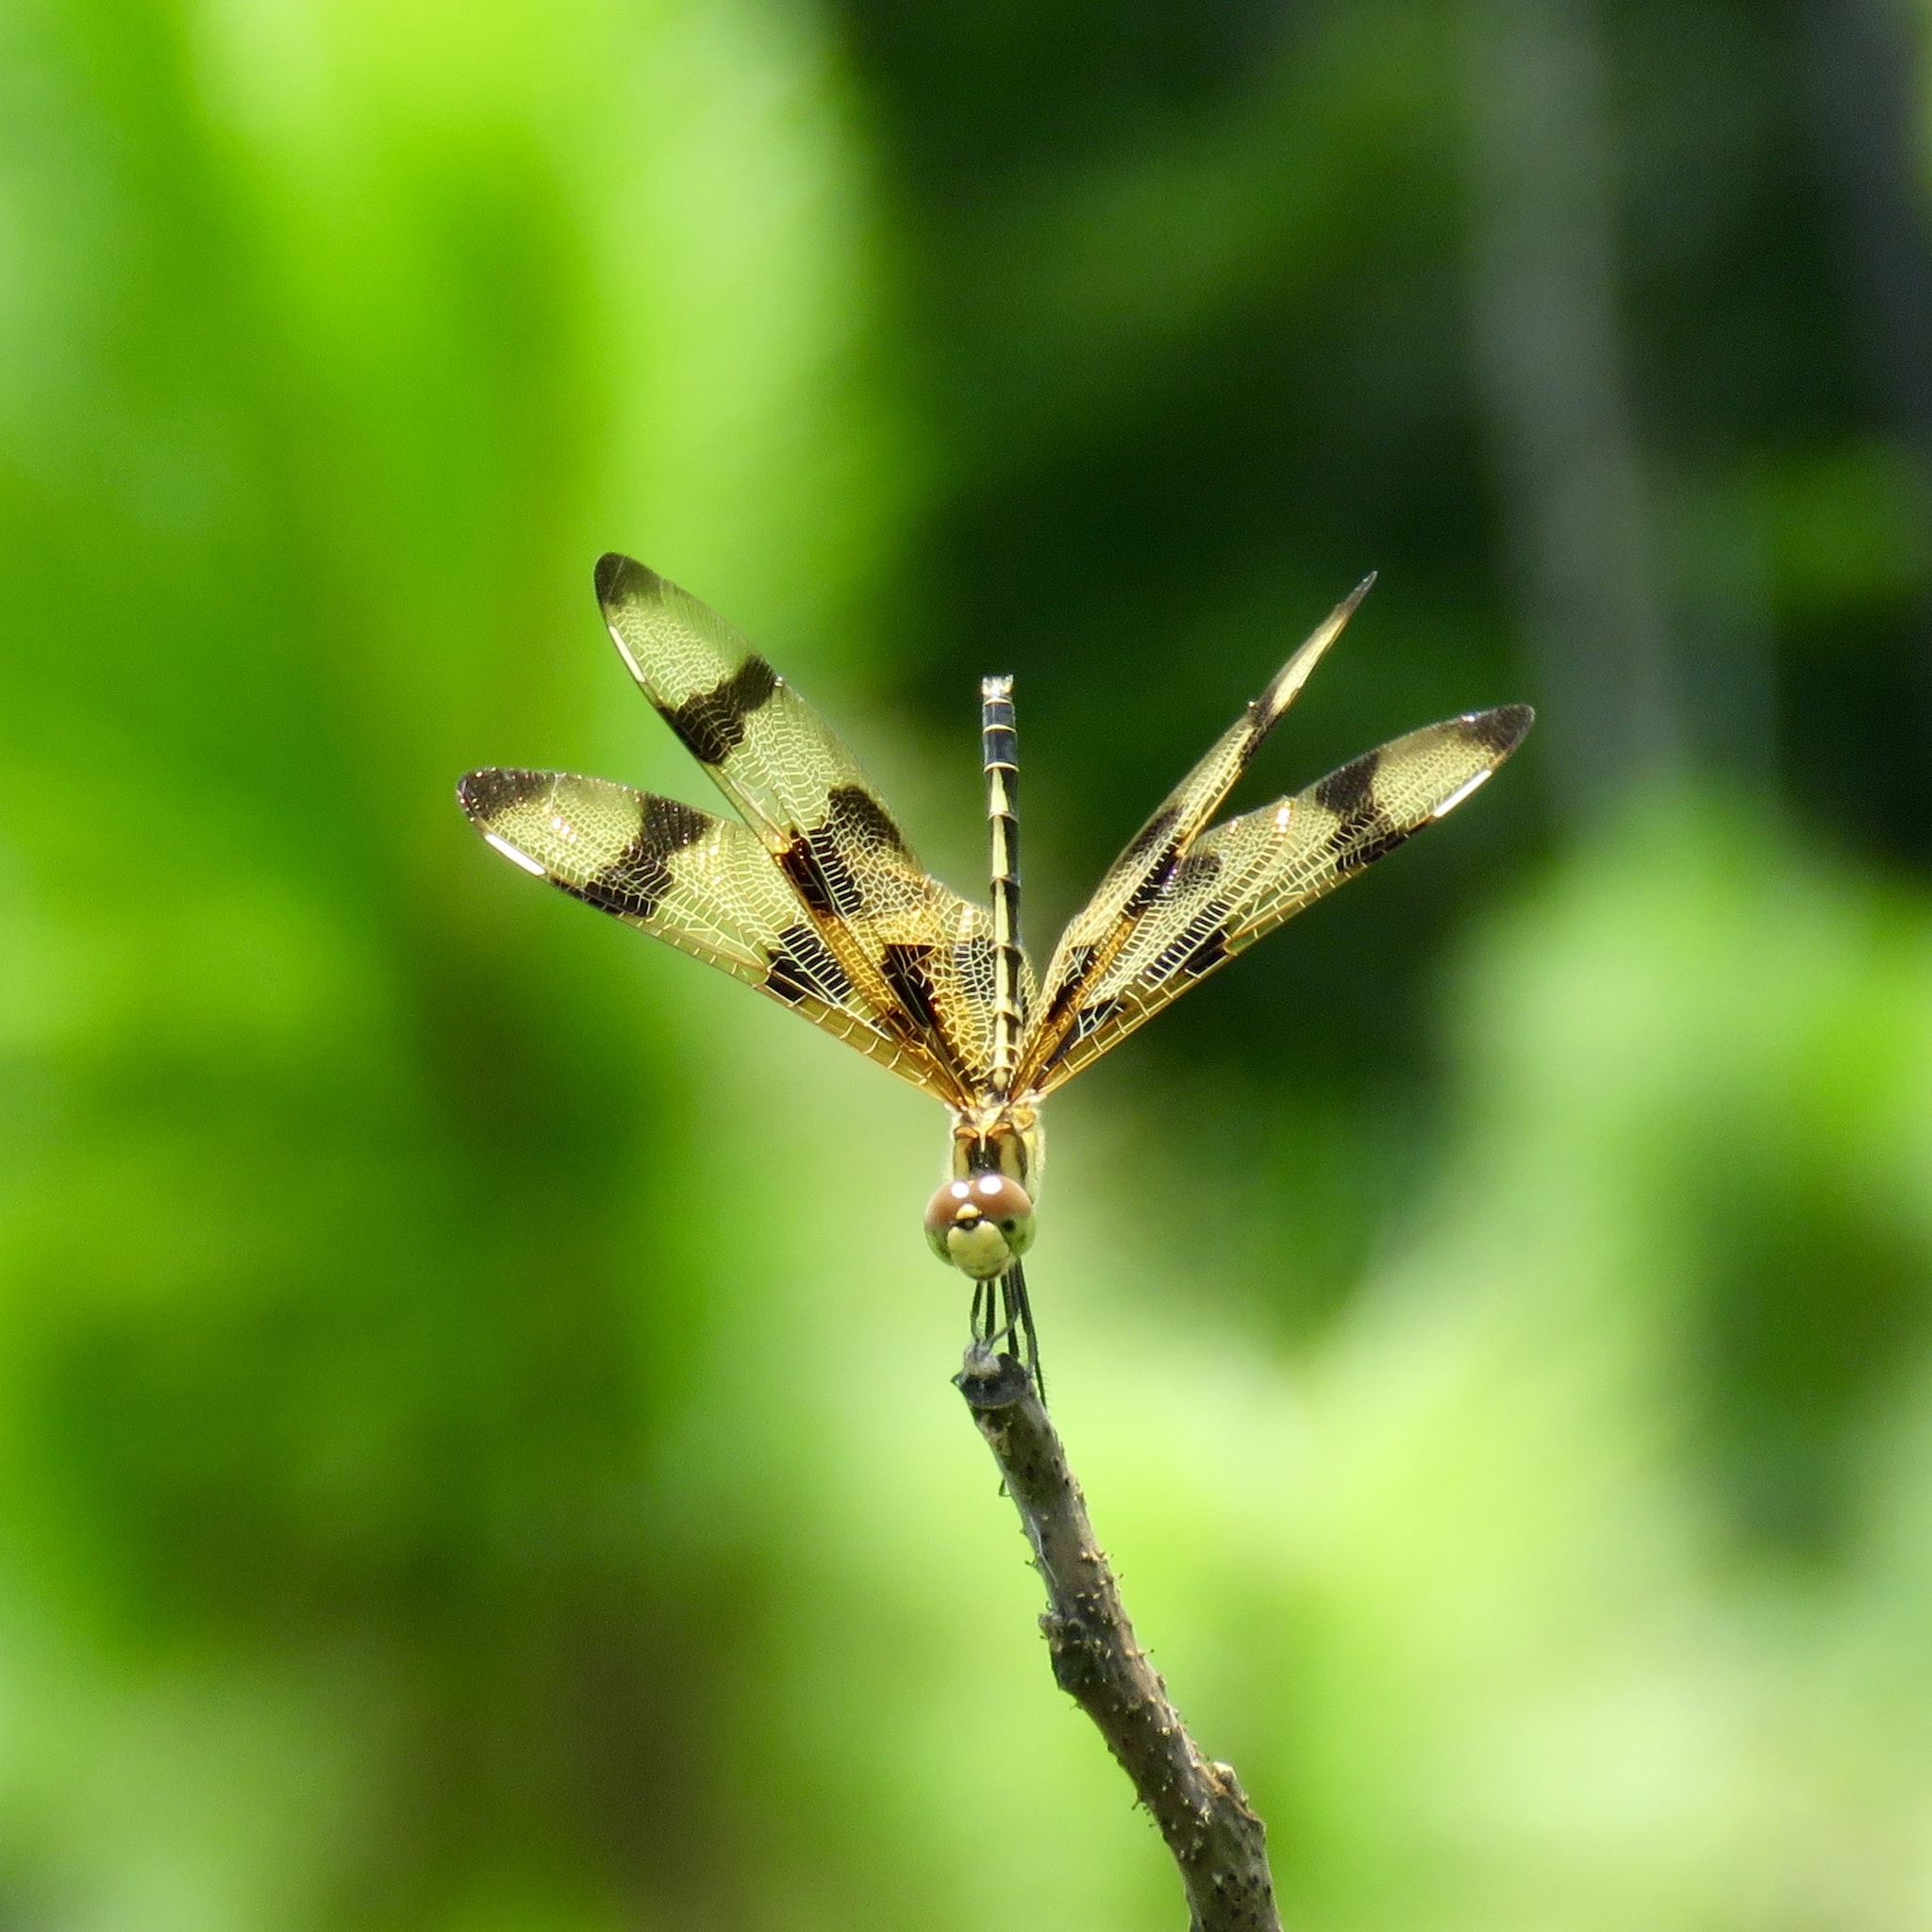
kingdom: Animalia
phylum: Arthropoda
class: Insecta
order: Odonata
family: Libellulidae
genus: Celithemis
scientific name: Celithemis eponina
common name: Halloween pennant
